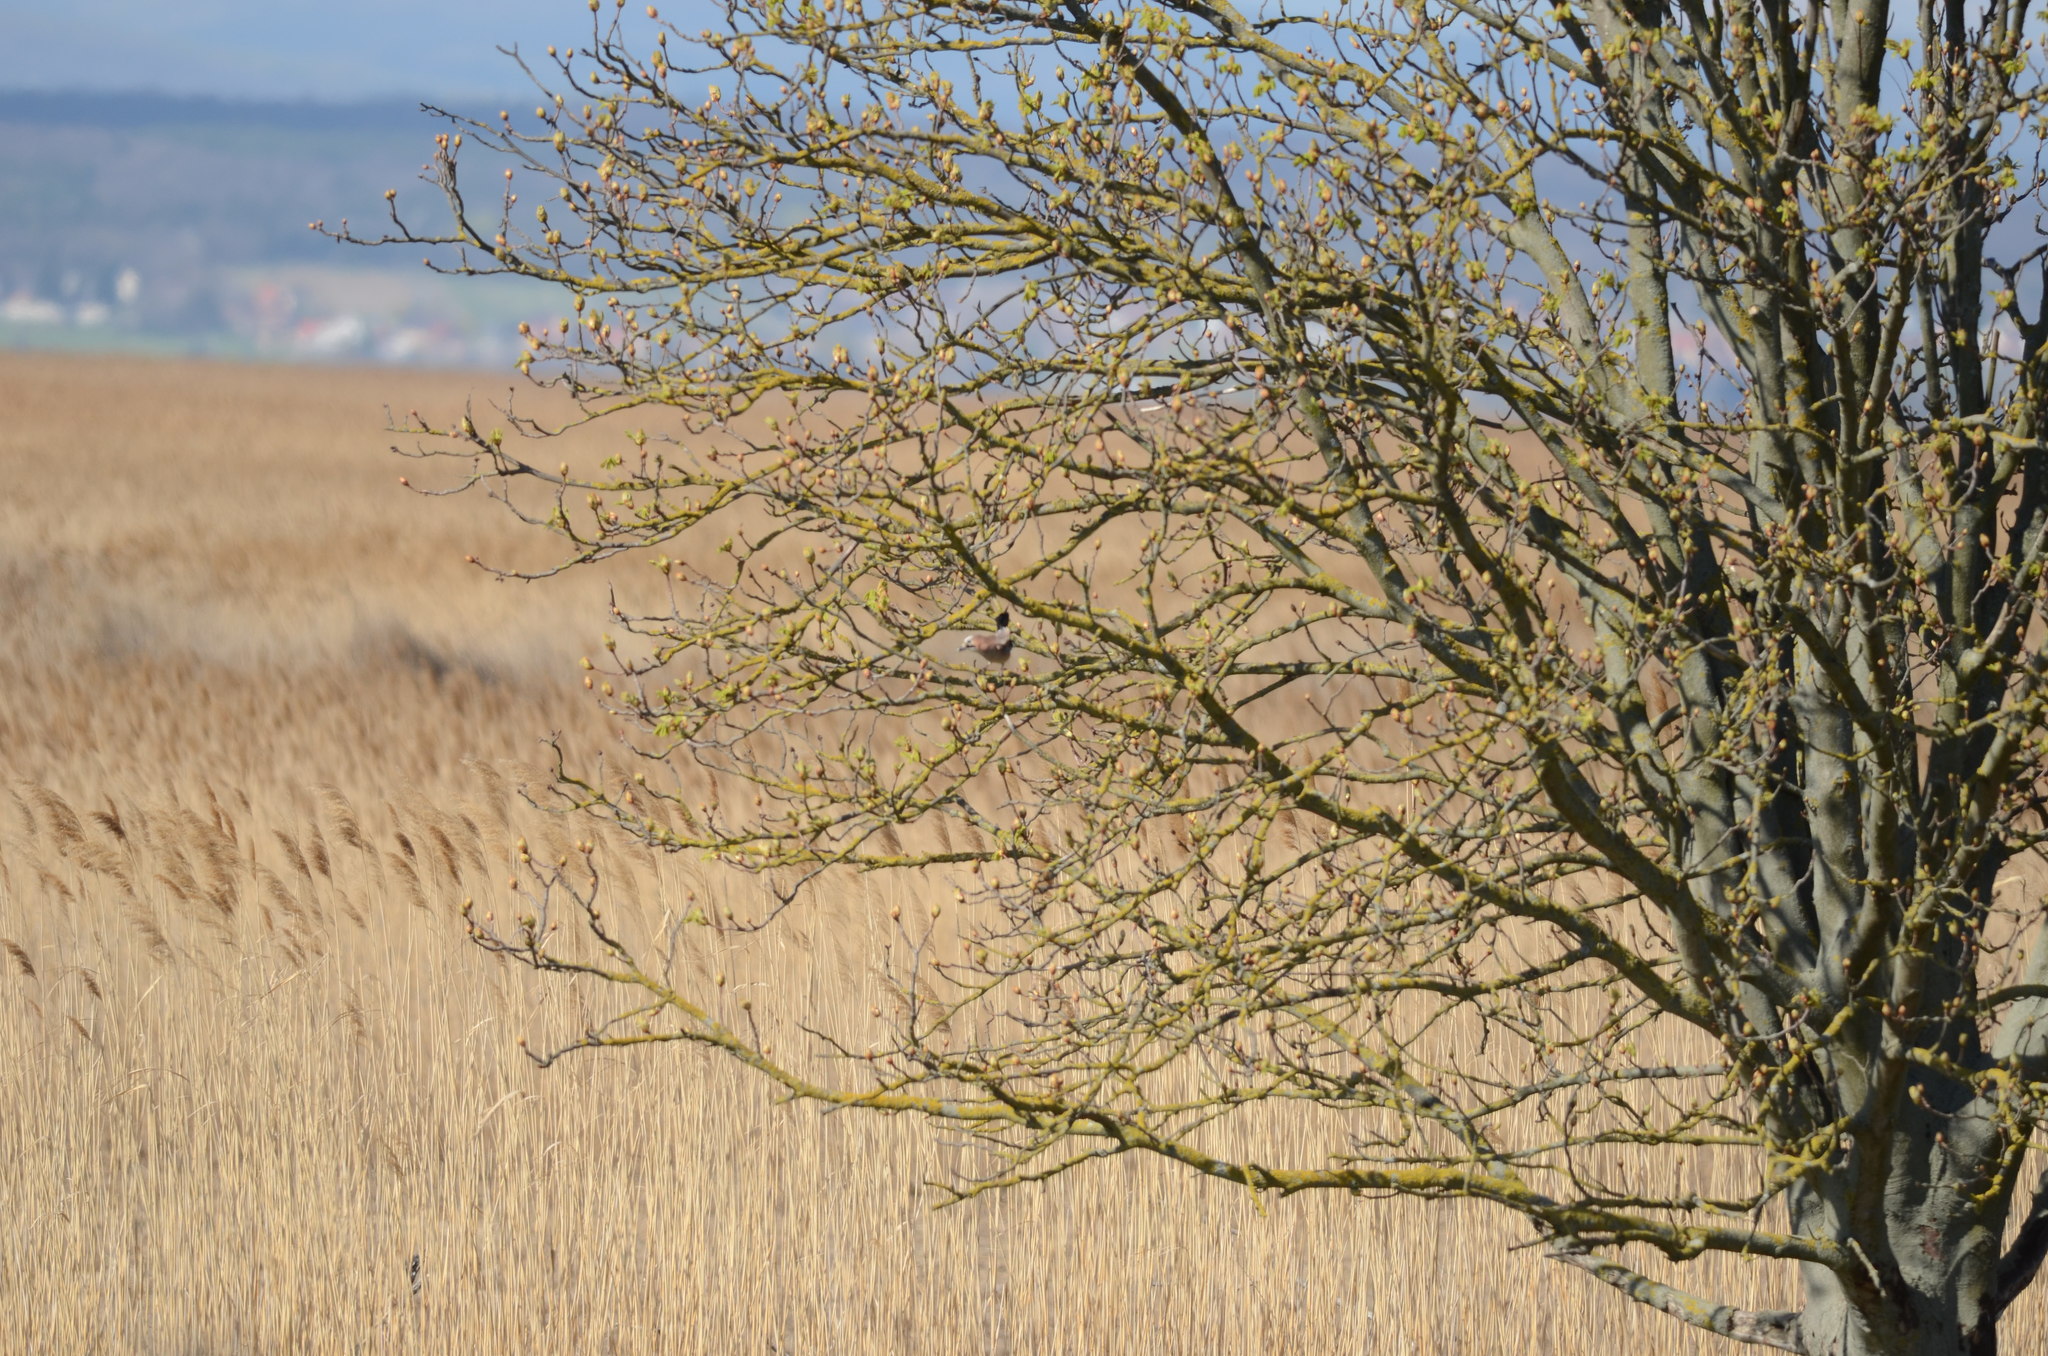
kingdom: Animalia
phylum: Chordata
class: Aves
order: Passeriformes
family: Corvidae
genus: Garrulus
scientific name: Garrulus glandarius
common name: Eurasian jay
